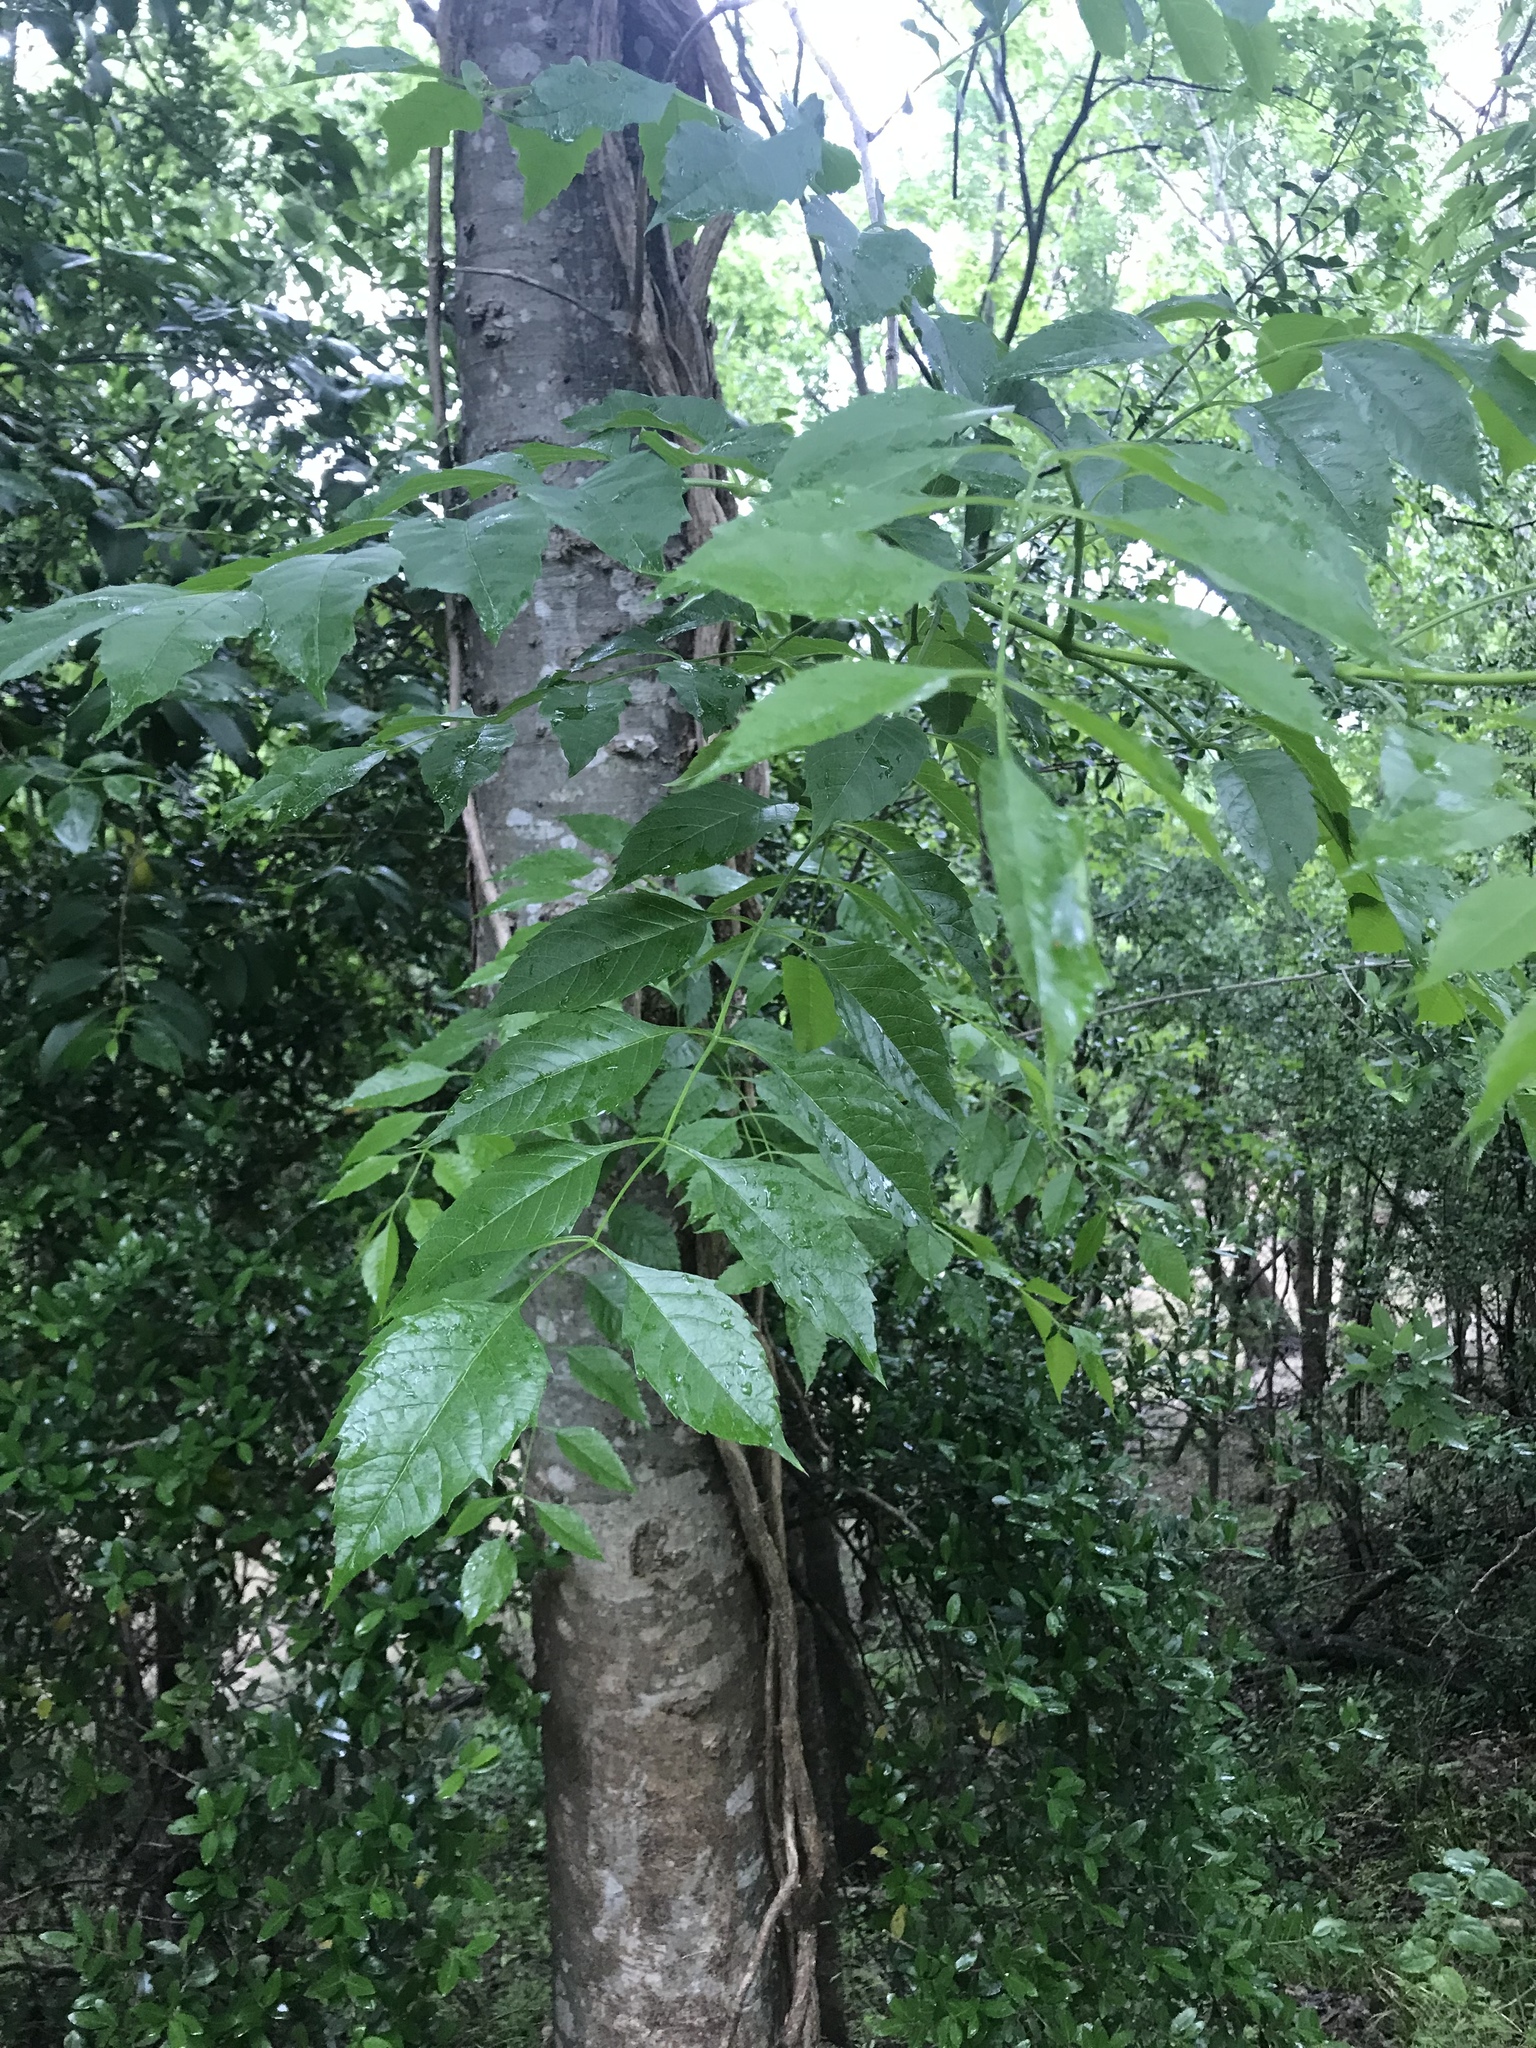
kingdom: Plantae
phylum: Tracheophyta
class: Magnoliopsida
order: Lamiales
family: Bignoniaceae
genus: Campsis
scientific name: Campsis radicans
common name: Trumpet-creeper
